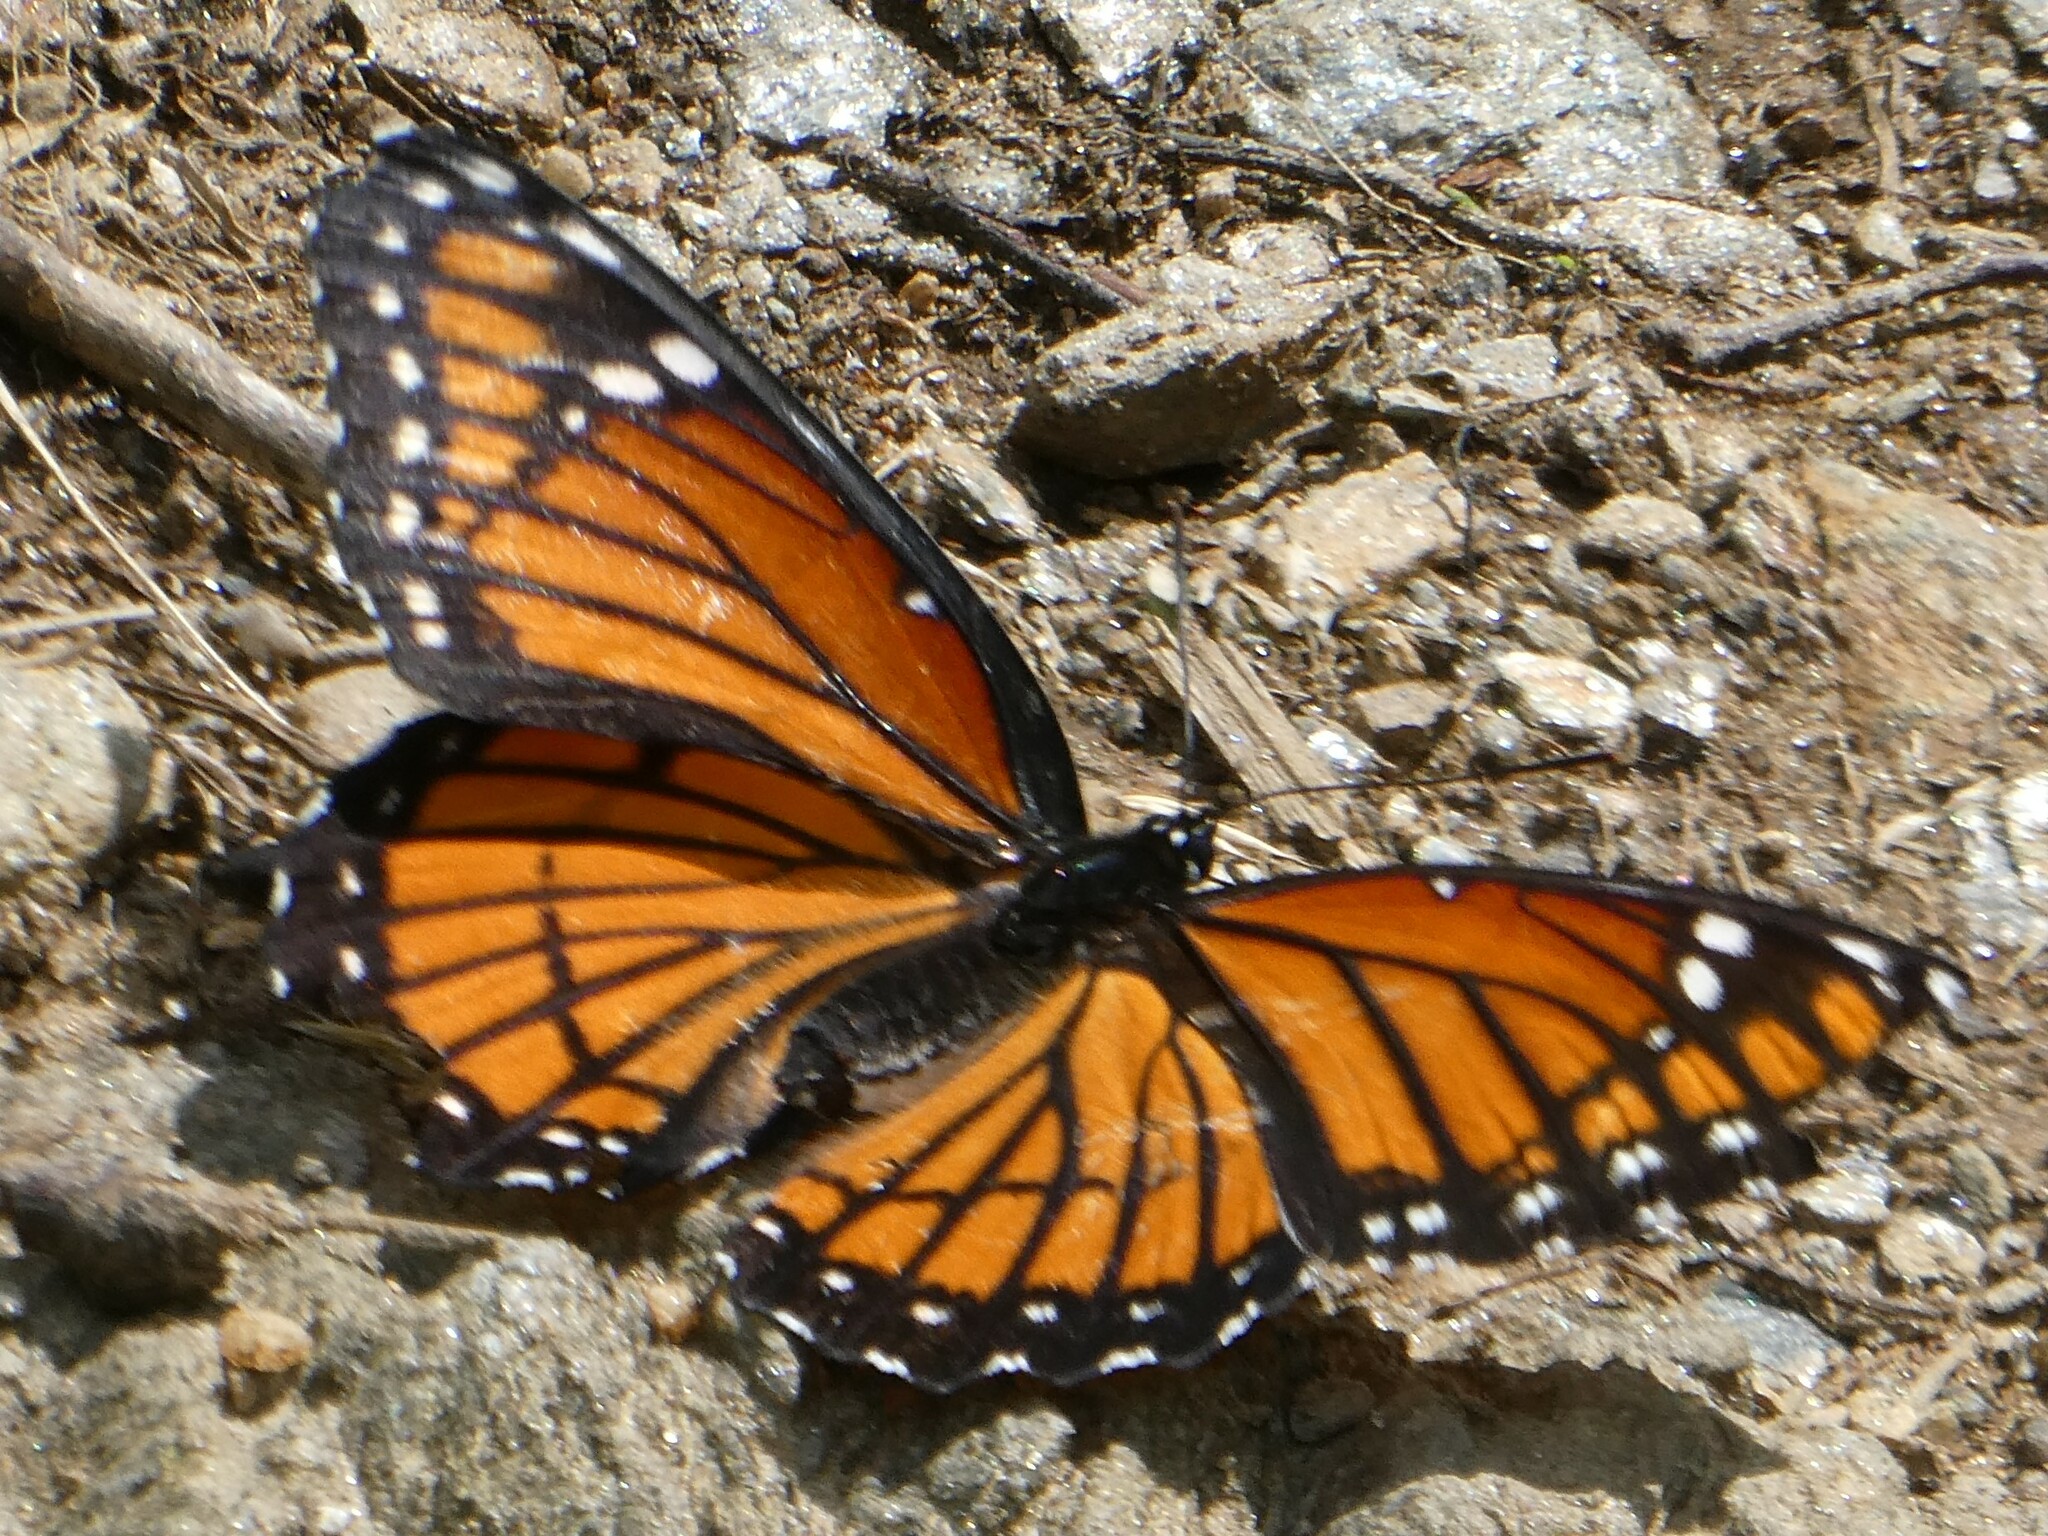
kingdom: Animalia
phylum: Arthropoda
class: Insecta
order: Lepidoptera
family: Nymphalidae
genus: Limenitis
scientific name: Limenitis archippus
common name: Viceroy
